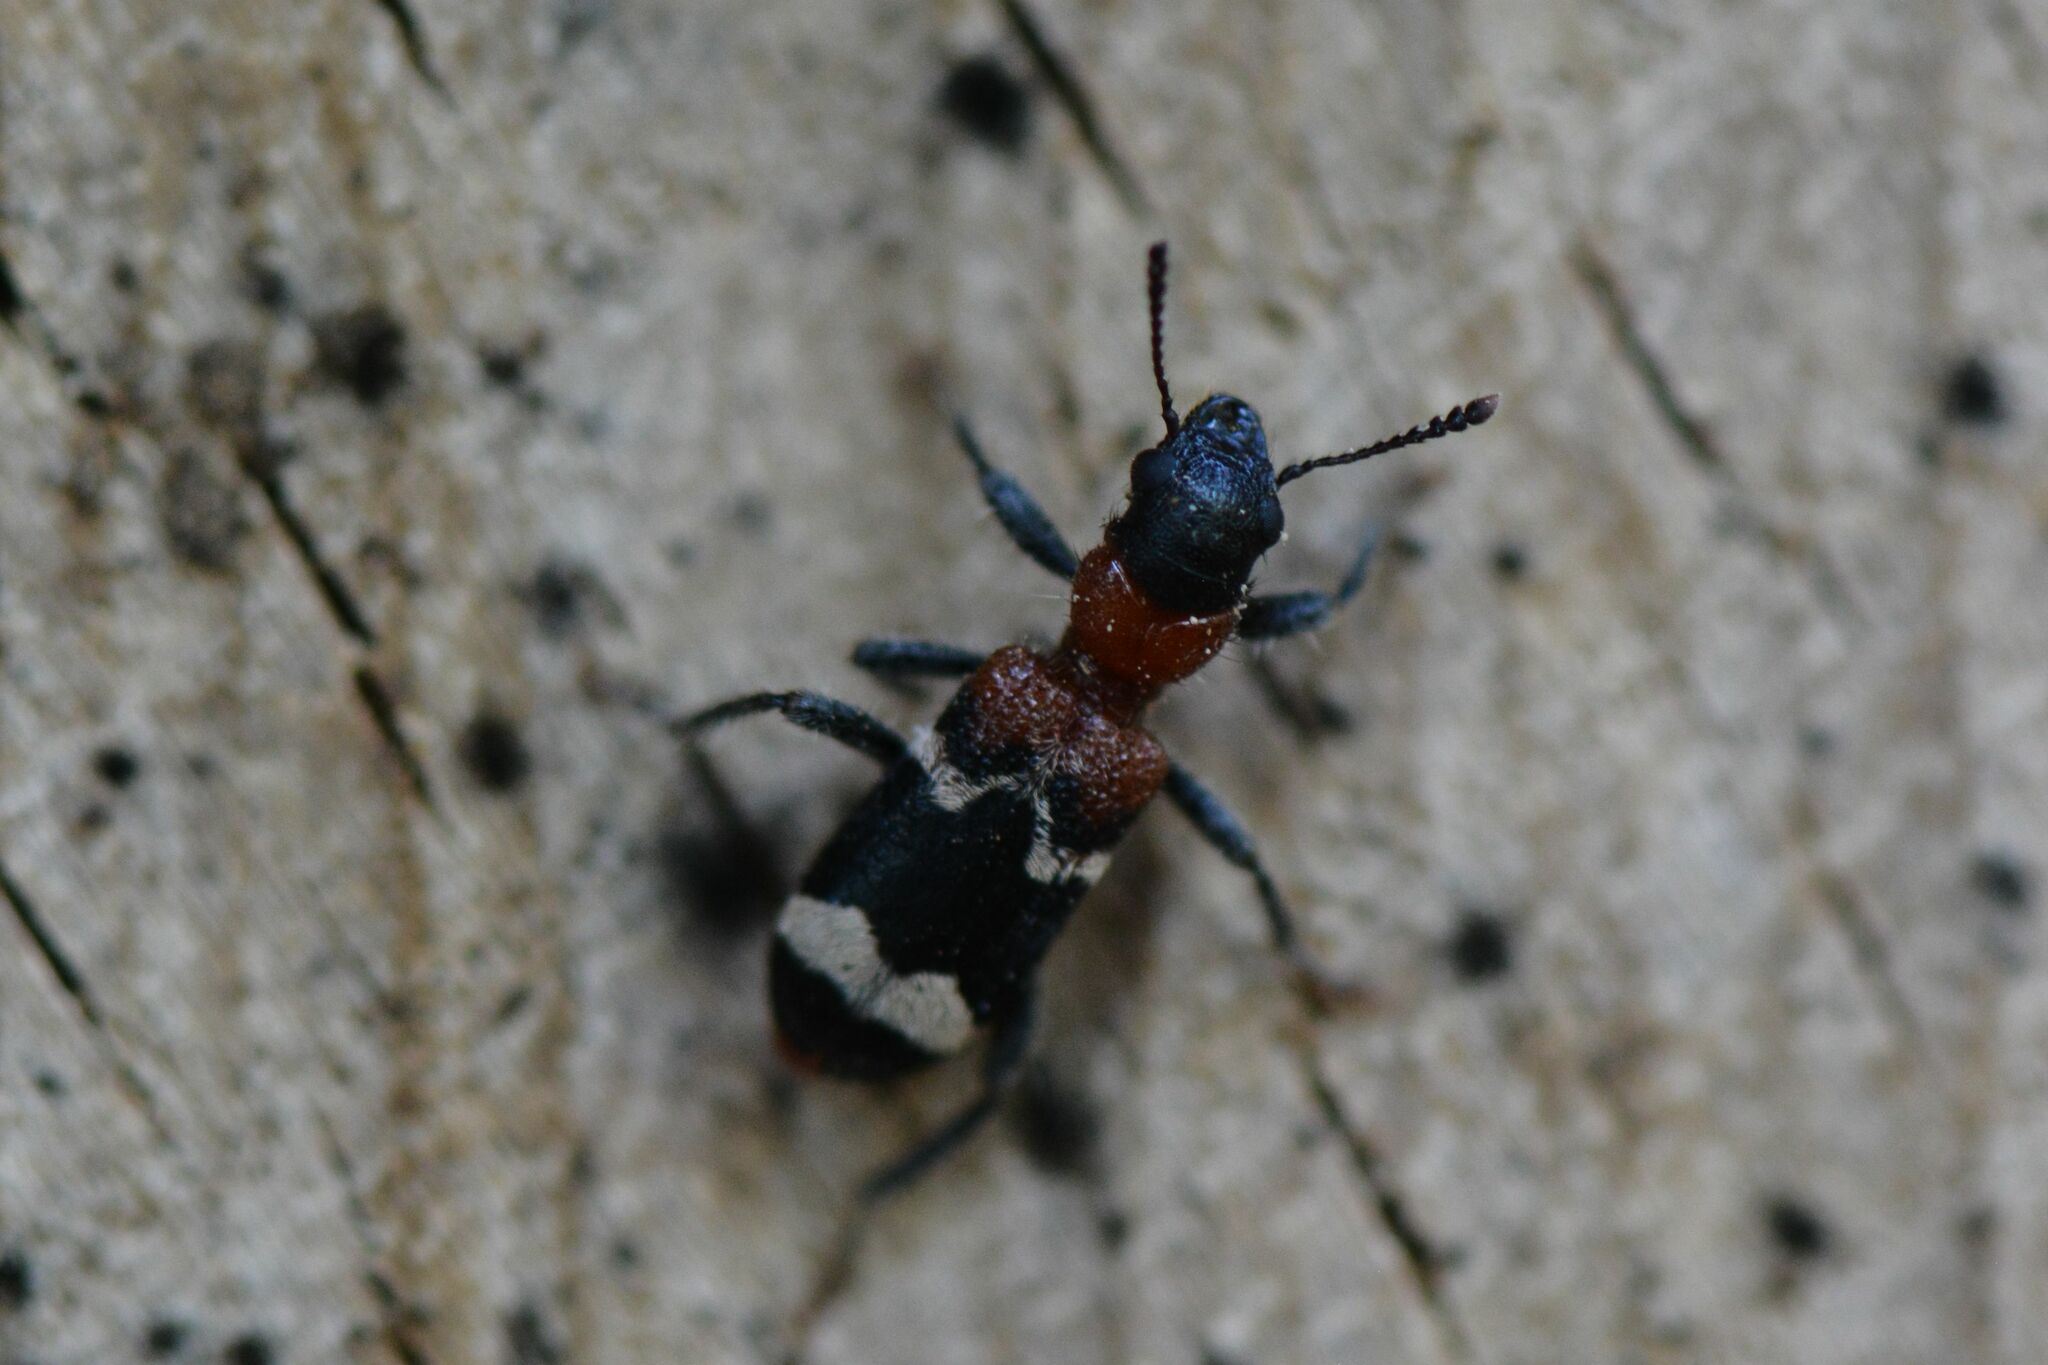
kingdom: Animalia
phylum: Arthropoda
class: Insecta
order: Coleoptera
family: Cleridae
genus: Thanasimus
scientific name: Thanasimus formicarius
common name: Ant beetle
